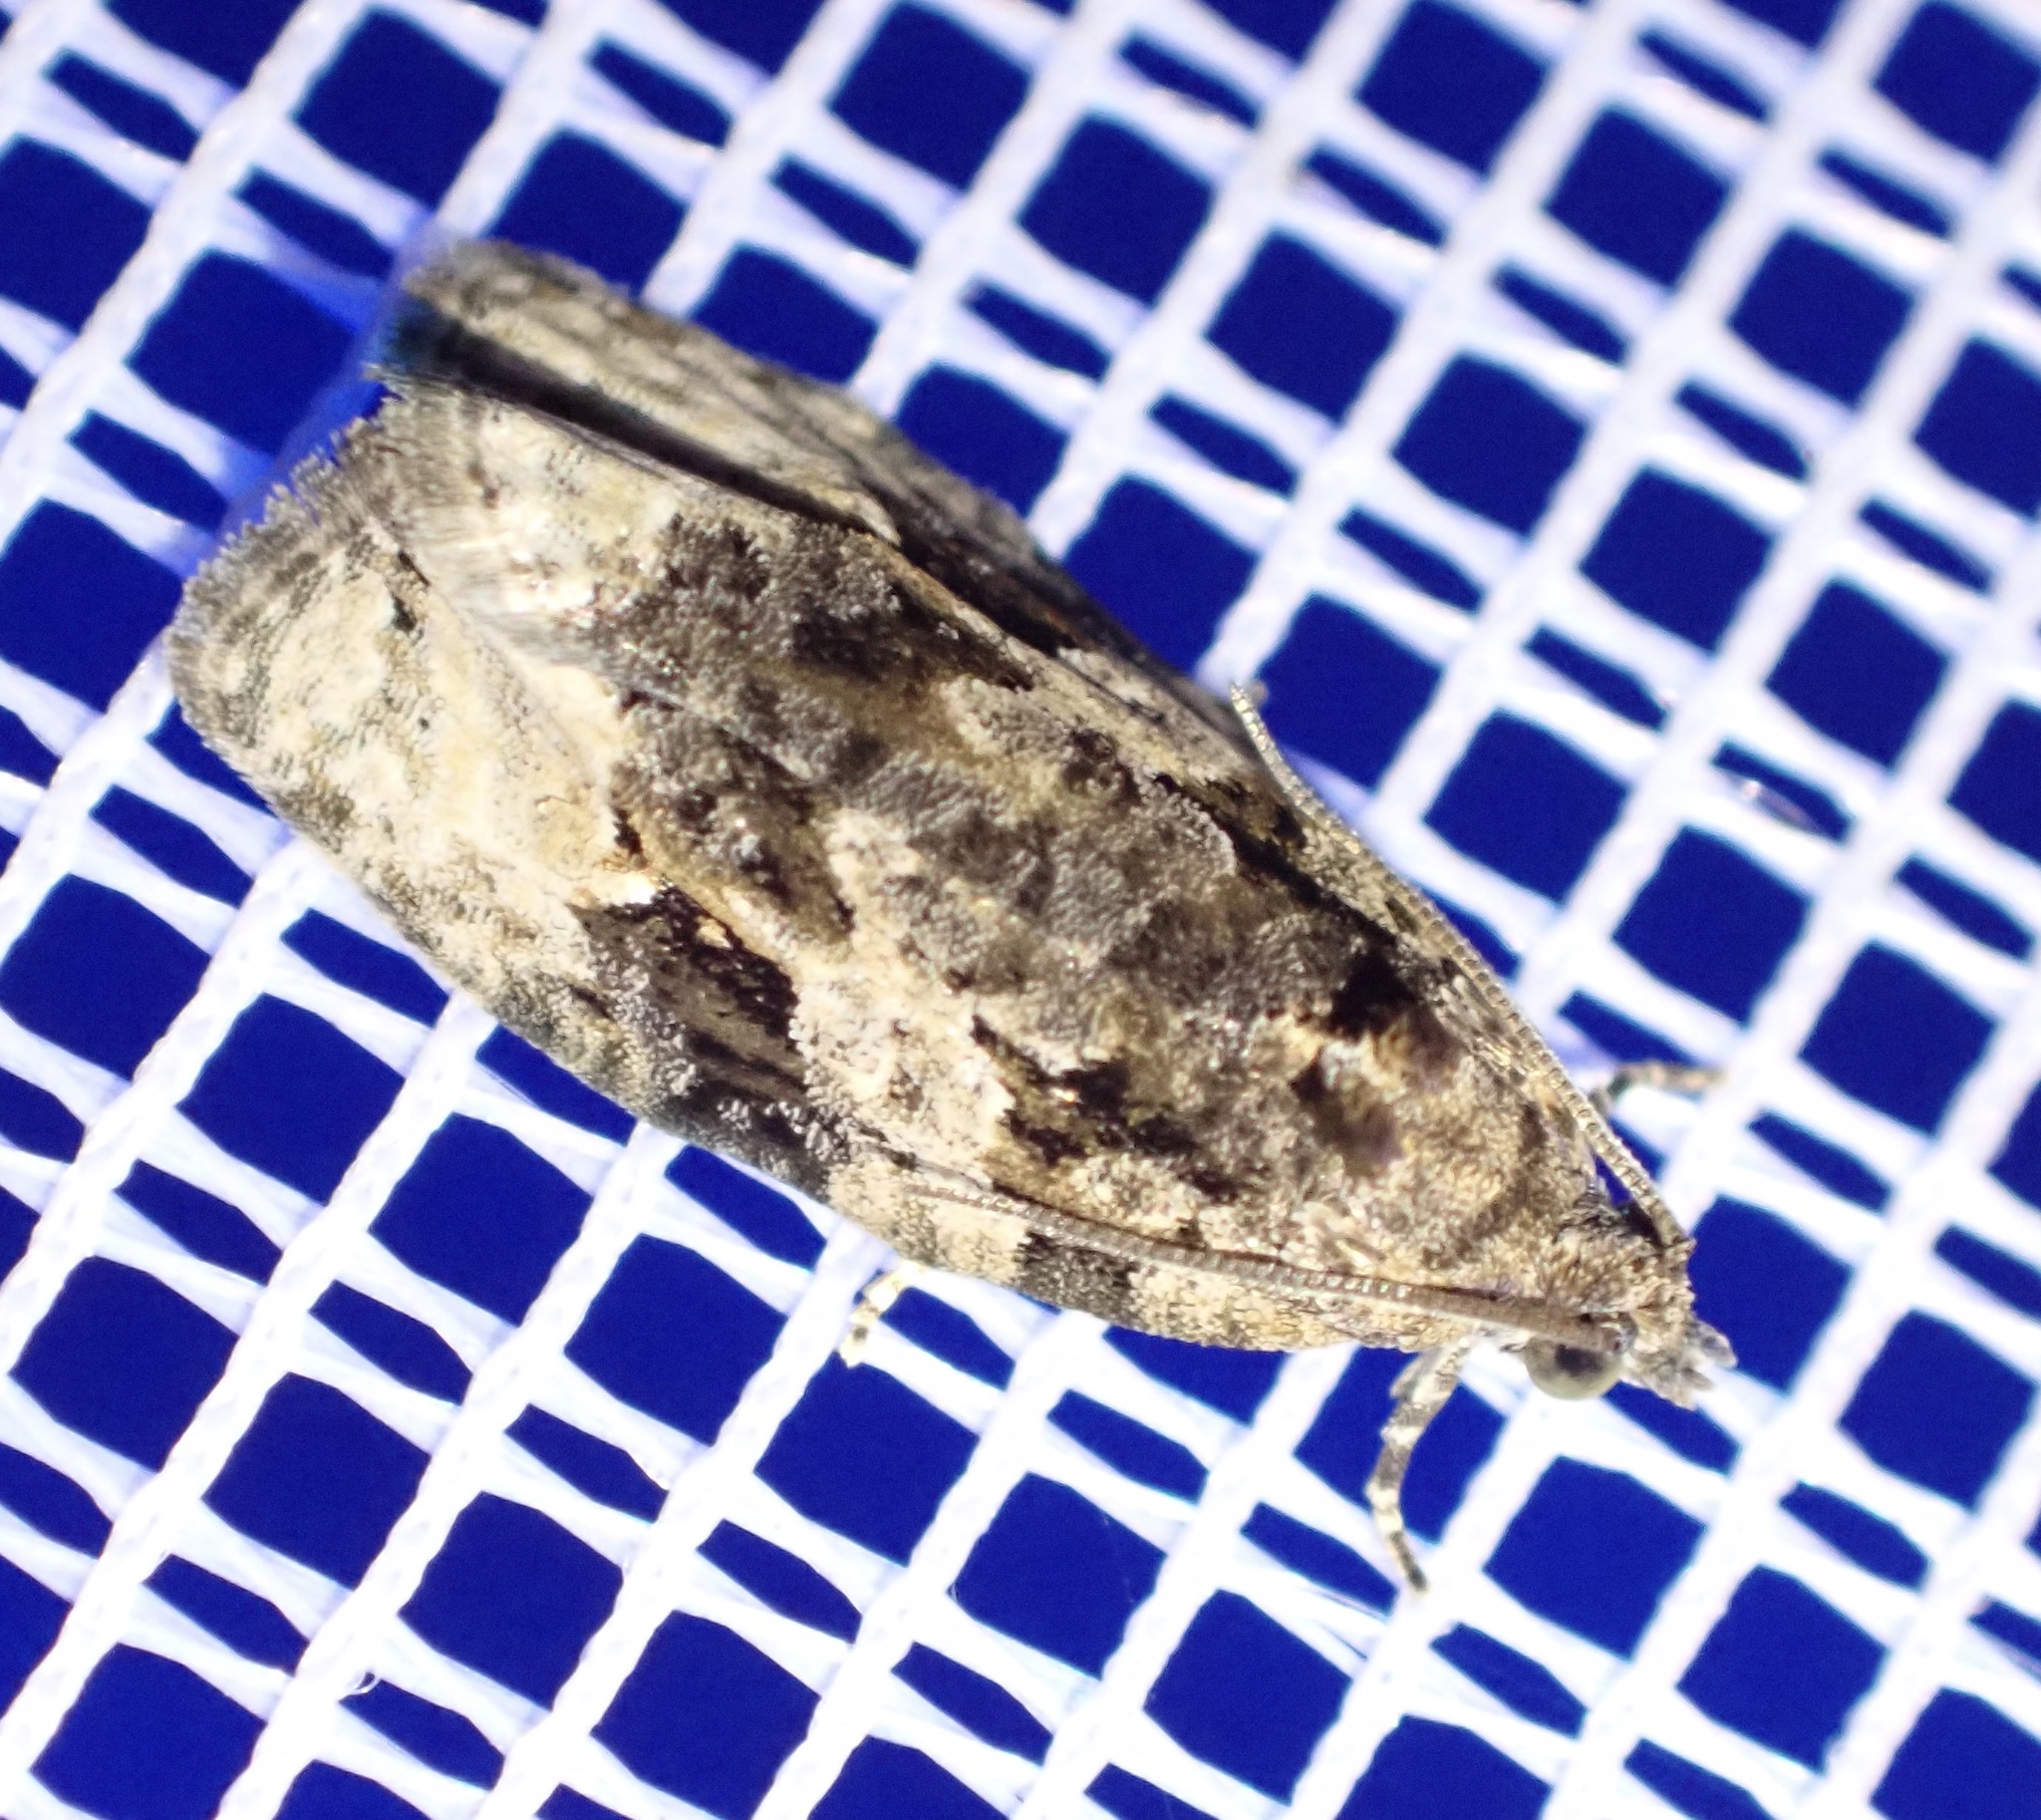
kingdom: Animalia
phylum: Arthropoda
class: Insecta
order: Lepidoptera
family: Tortricidae
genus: Apotomis
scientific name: Apotomis lineana
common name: Willow marble
